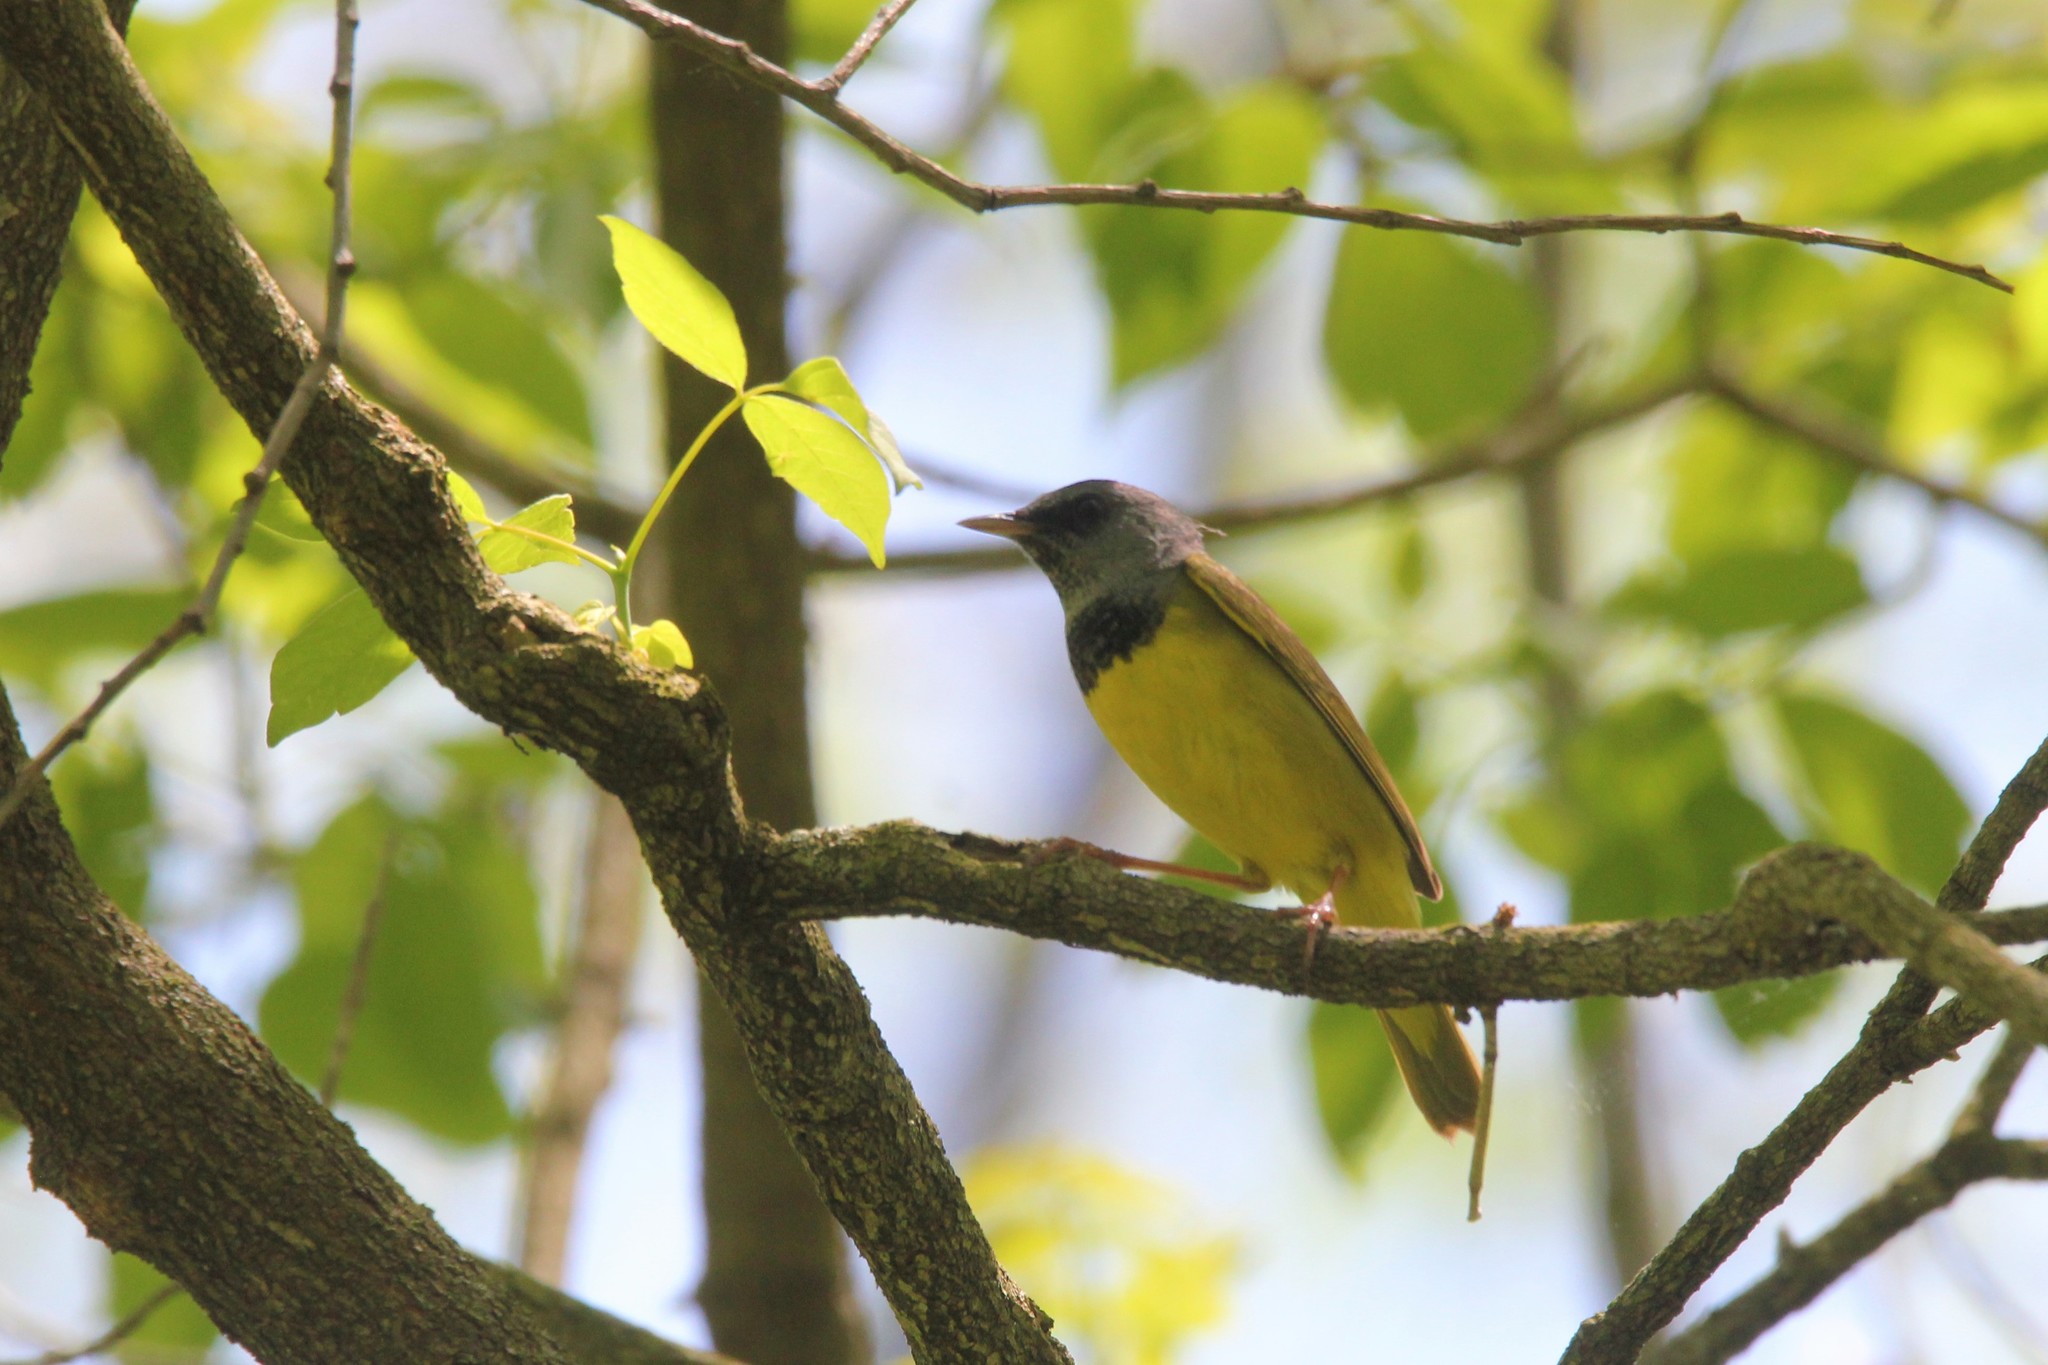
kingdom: Animalia
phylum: Chordata
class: Aves
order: Passeriformes
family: Parulidae
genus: Geothlypis
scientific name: Geothlypis philadelphia
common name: Mourning warbler
